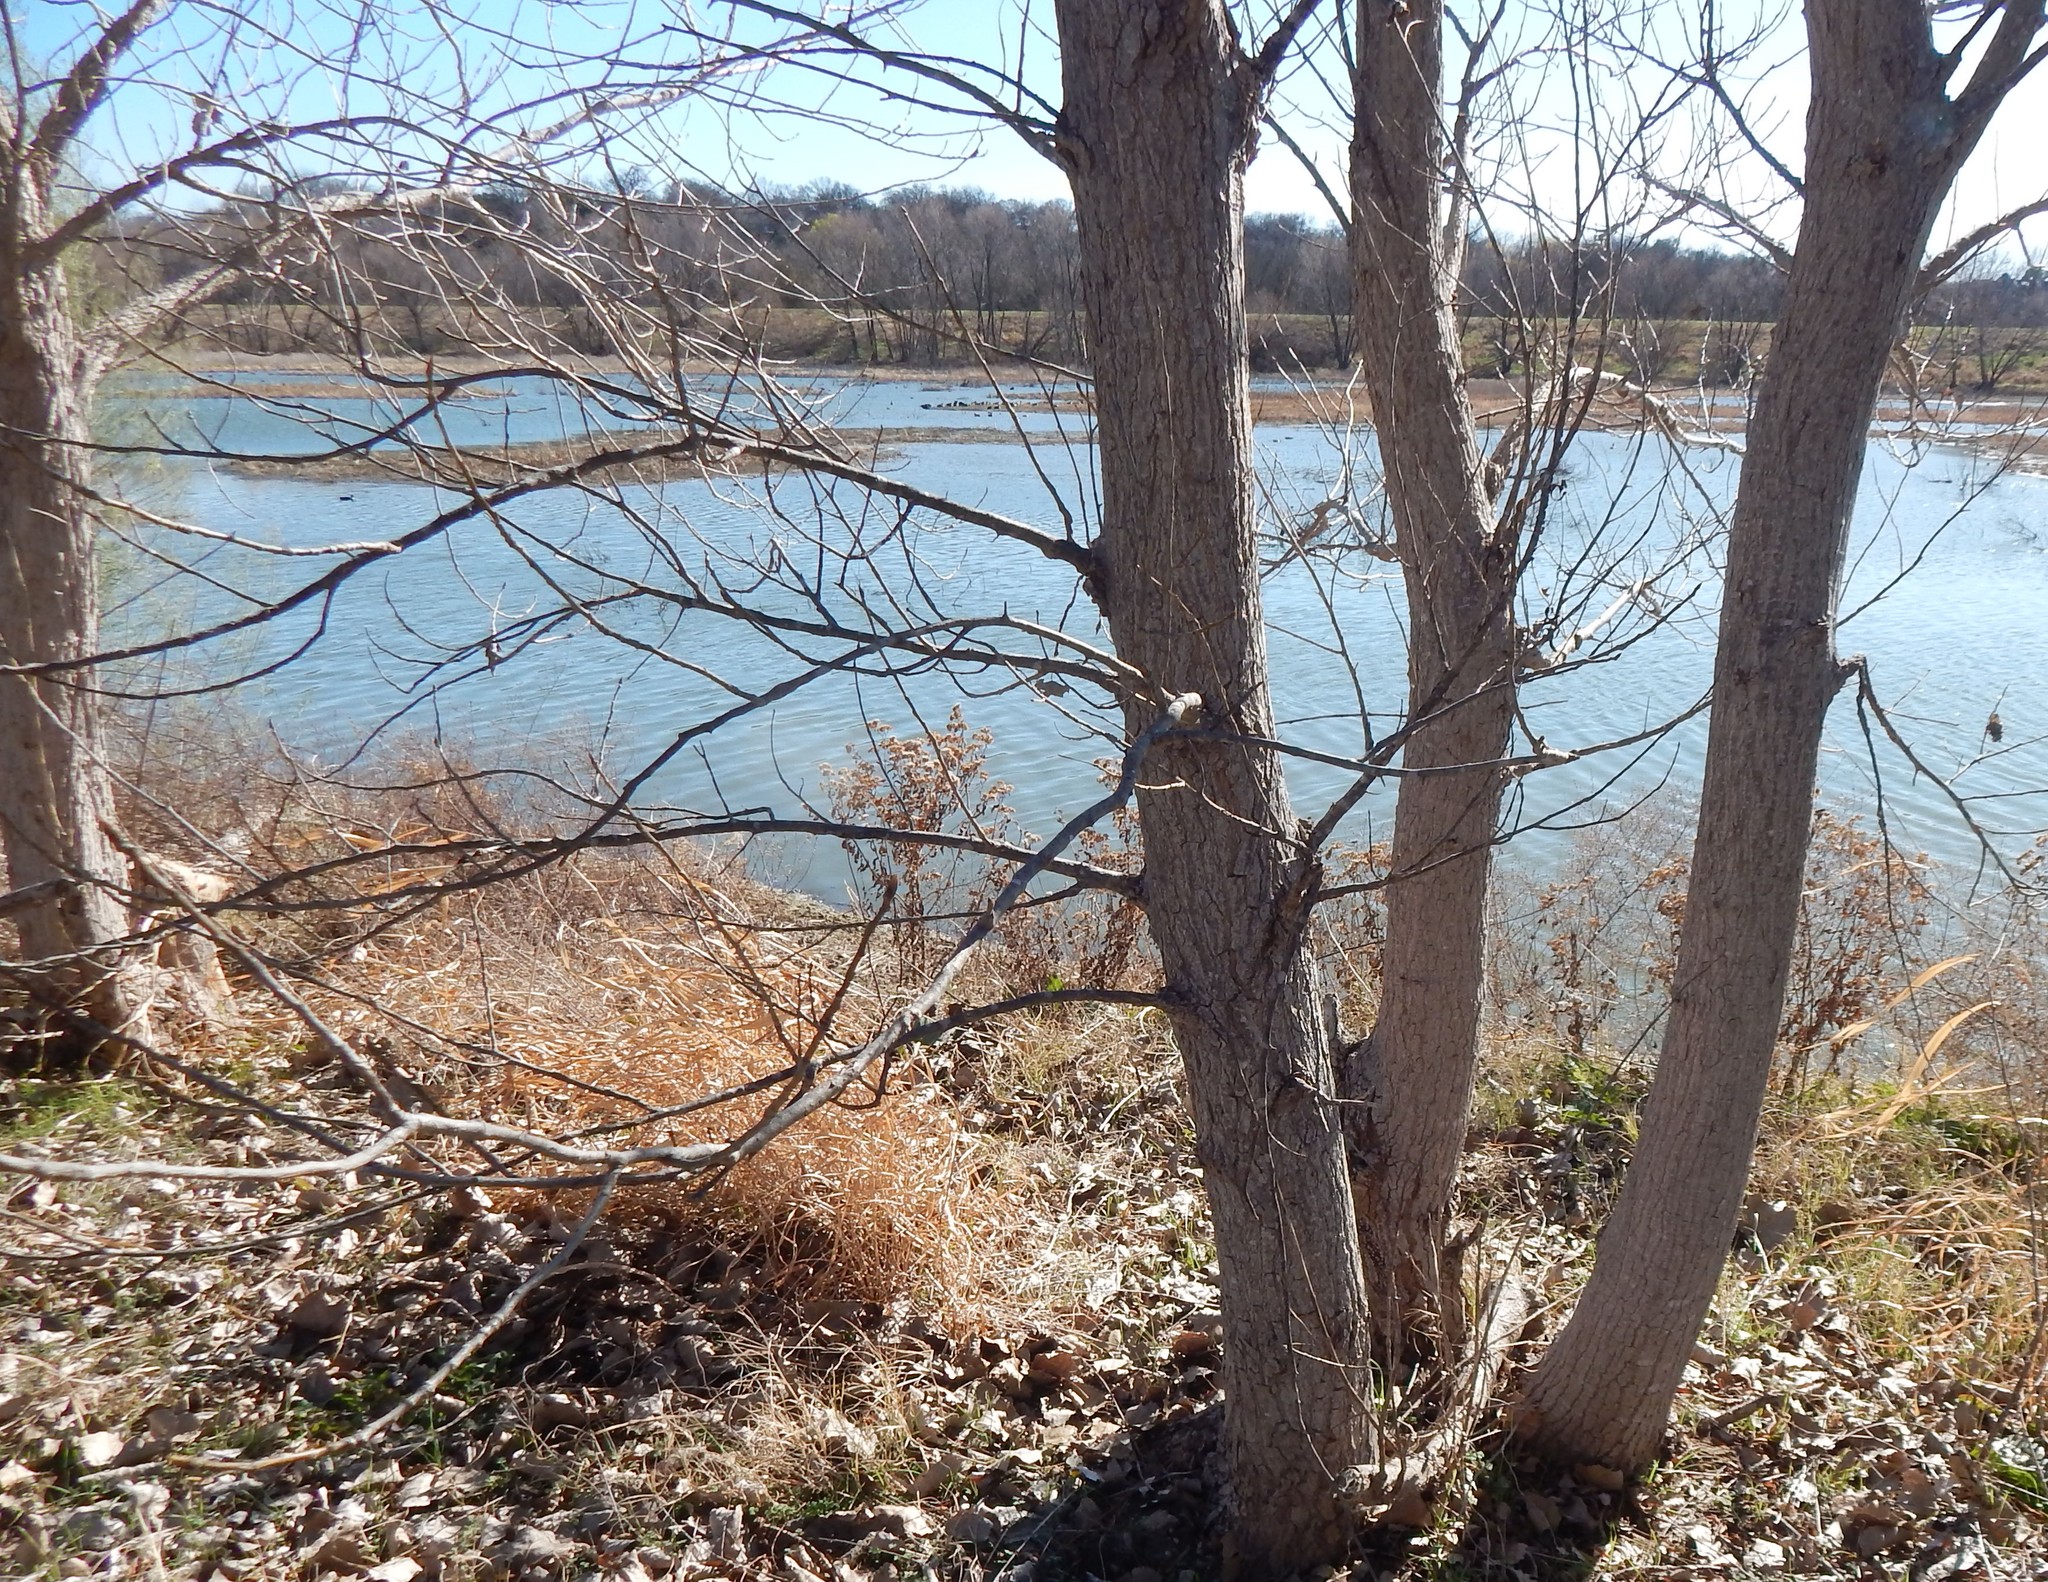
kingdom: Plantae
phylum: Tracheophyta
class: Magnoliopsida
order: Malpighiales
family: Salicaceae
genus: Populus
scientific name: Populus deltoides
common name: Eastern cottonwood
